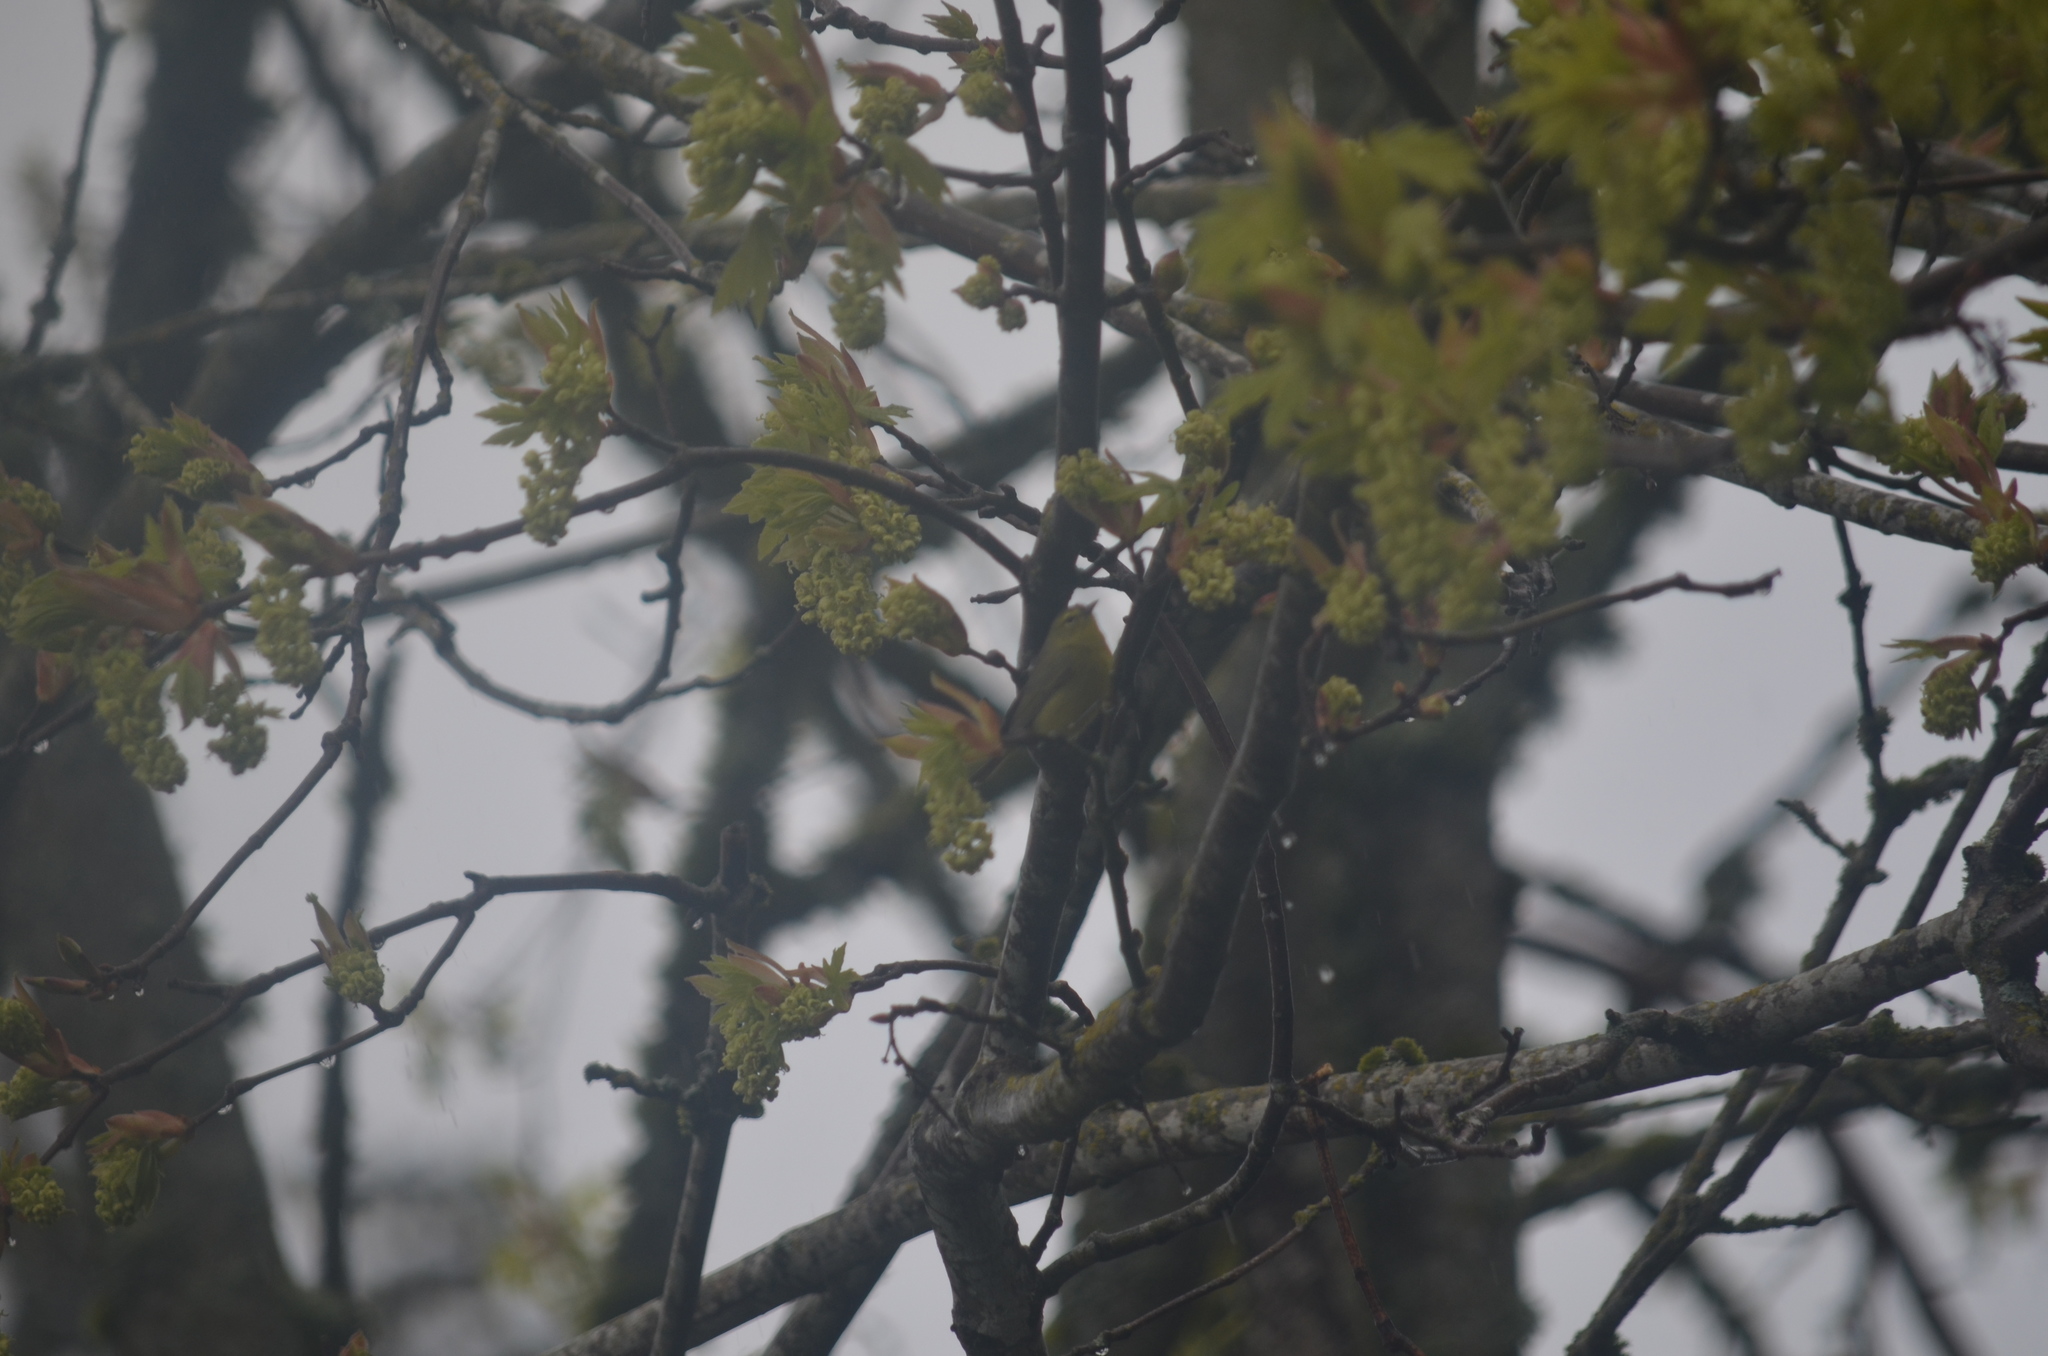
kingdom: Animalia
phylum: Chordata
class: Aves
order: Passeriformes
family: Parulidae
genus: Leiothlypis
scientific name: Leiothlypis celata
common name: Orange-crowned warbler
